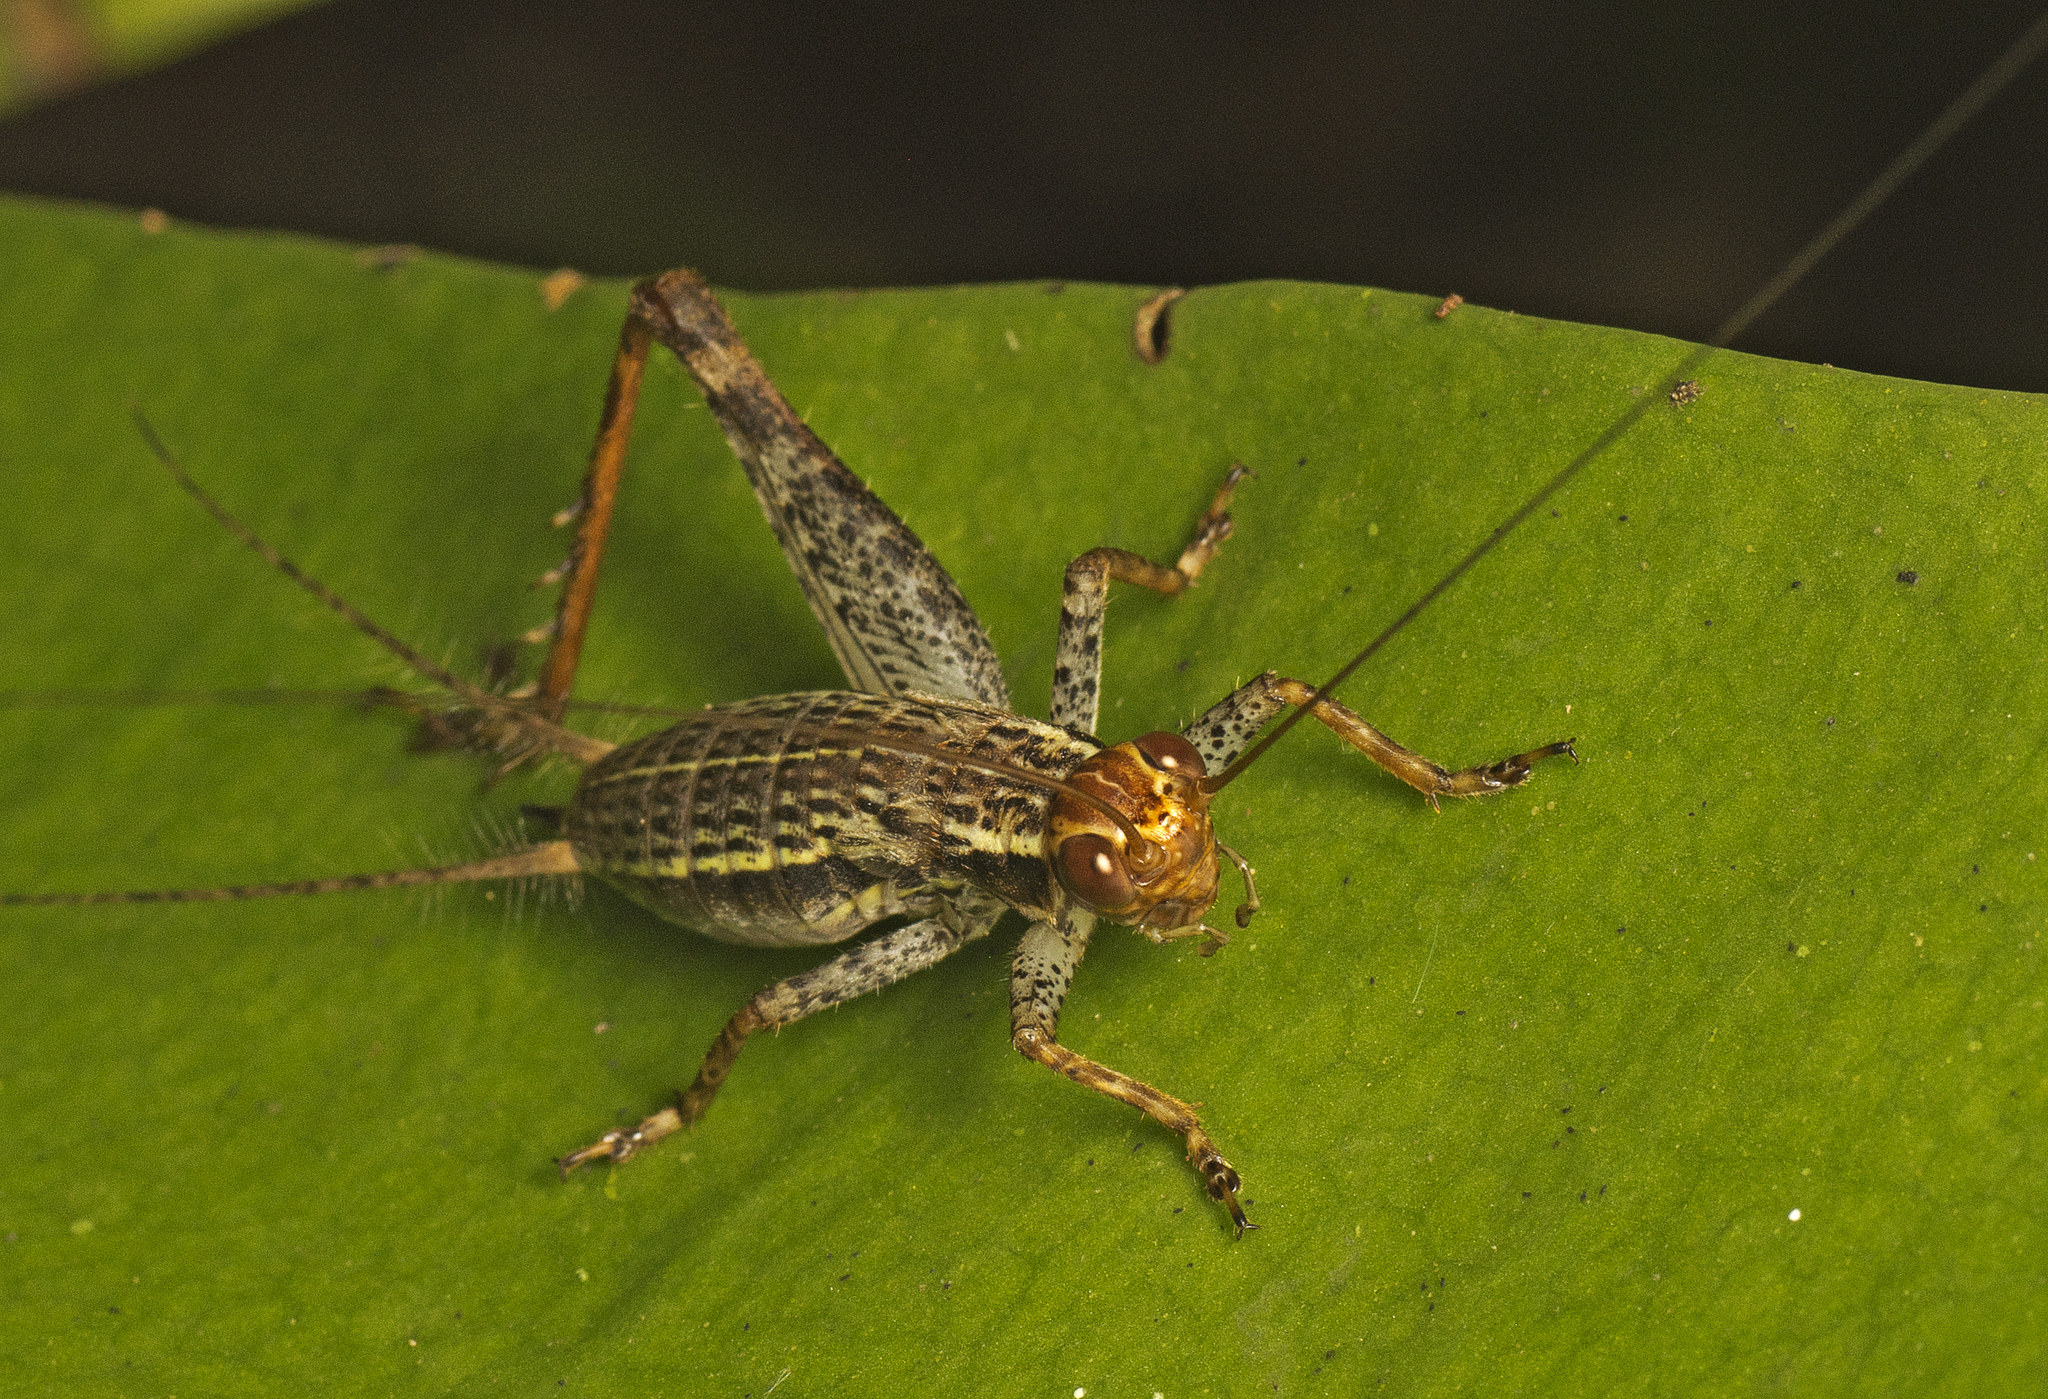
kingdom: Animalia
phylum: Arthropoda
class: Insecta
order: Orthoptera
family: Gryllidae
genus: Cardiodactylus
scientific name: Cardiodactylus novaeguineae
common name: Sad cricket
